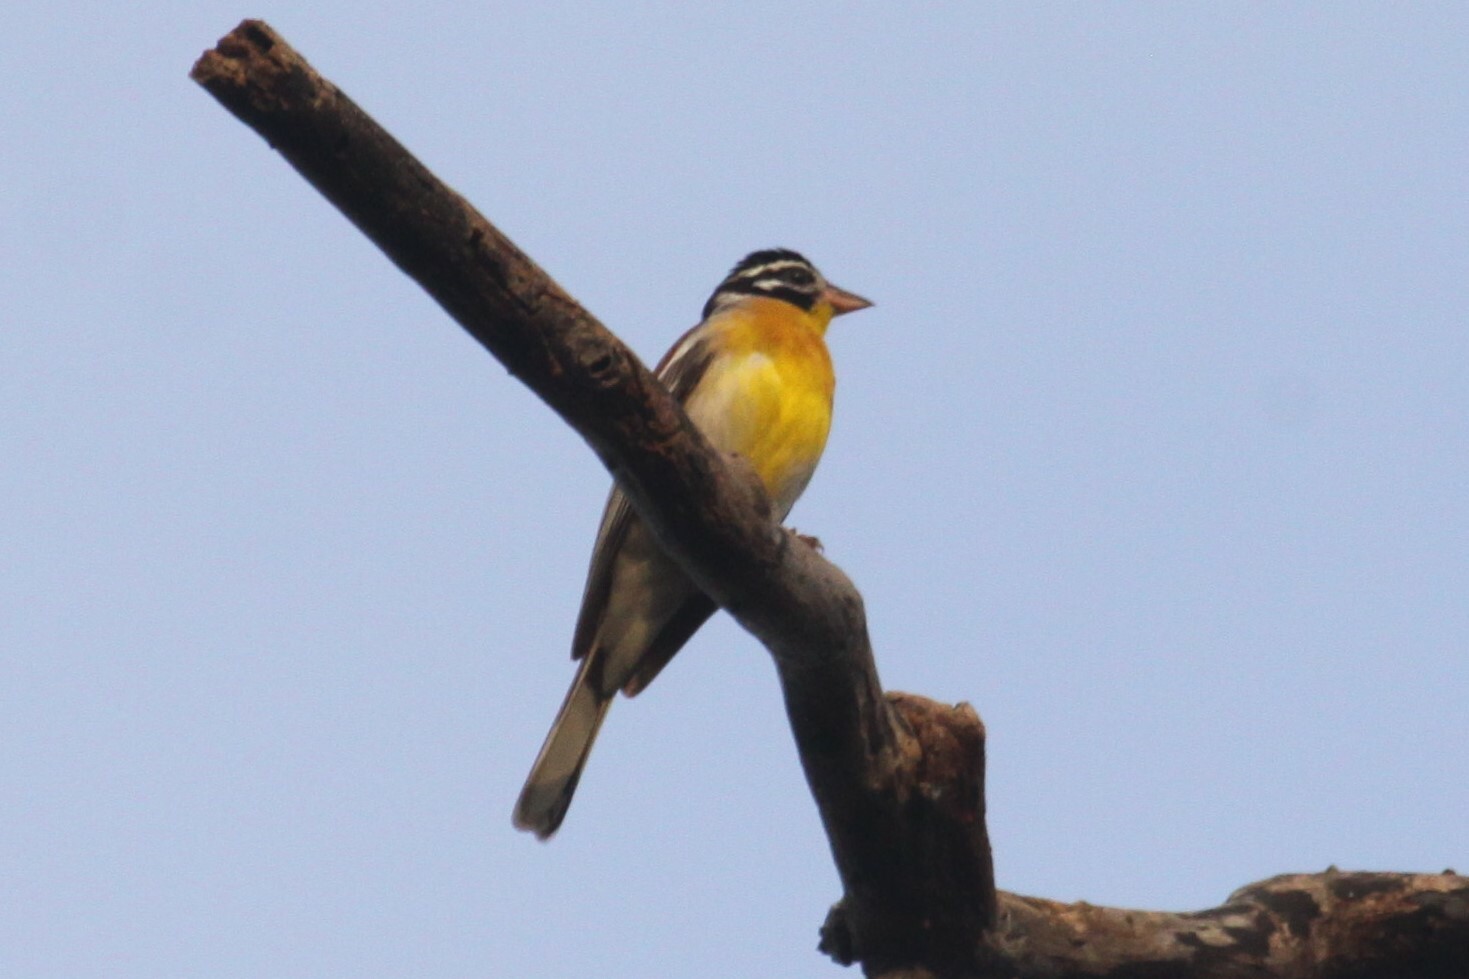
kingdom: Animalia
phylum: Chordata
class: Aves
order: Passeriformes
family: Emberizidae
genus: Emberiza
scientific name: Emberiza flaviventris
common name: Golden-breasted bunting
